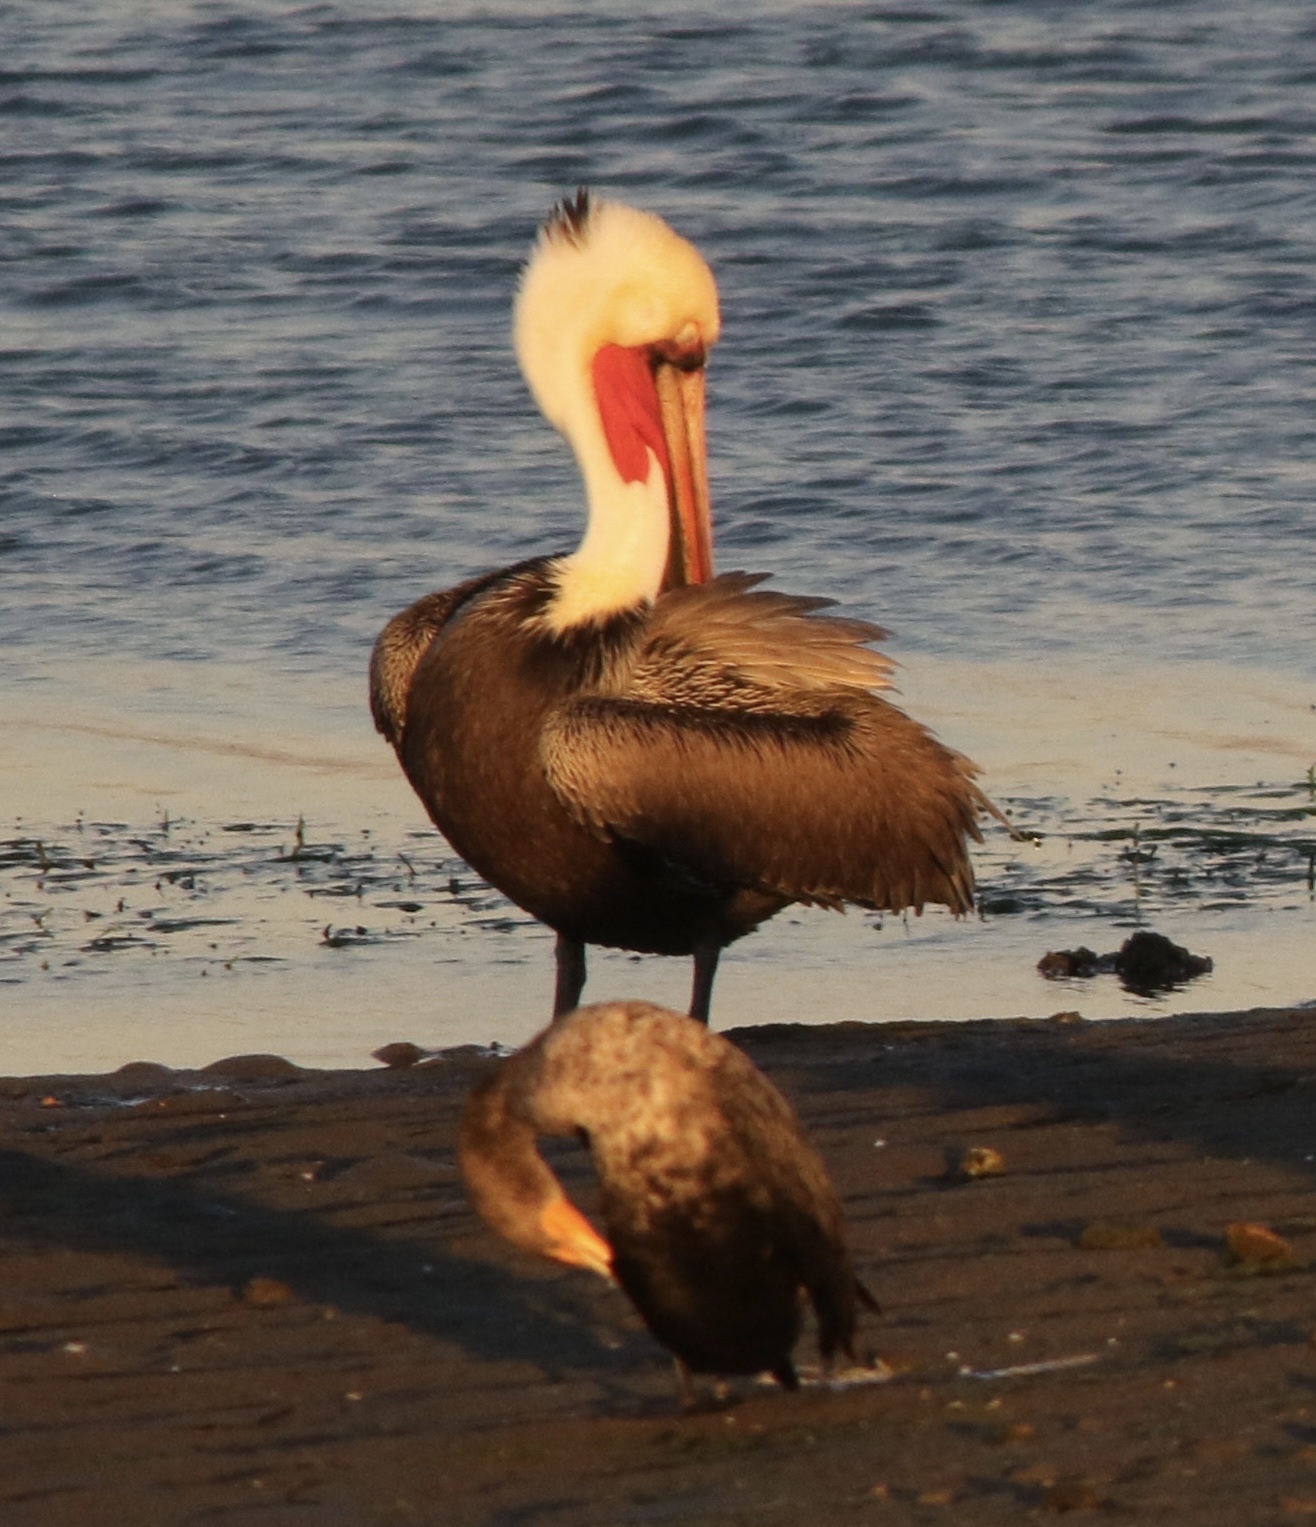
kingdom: Animalia
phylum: Chordata
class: Aves
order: Pelecaniformes
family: Pelecanidae
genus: Pelecanus
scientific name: Pelecanus occidentalis
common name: Brown pelican
